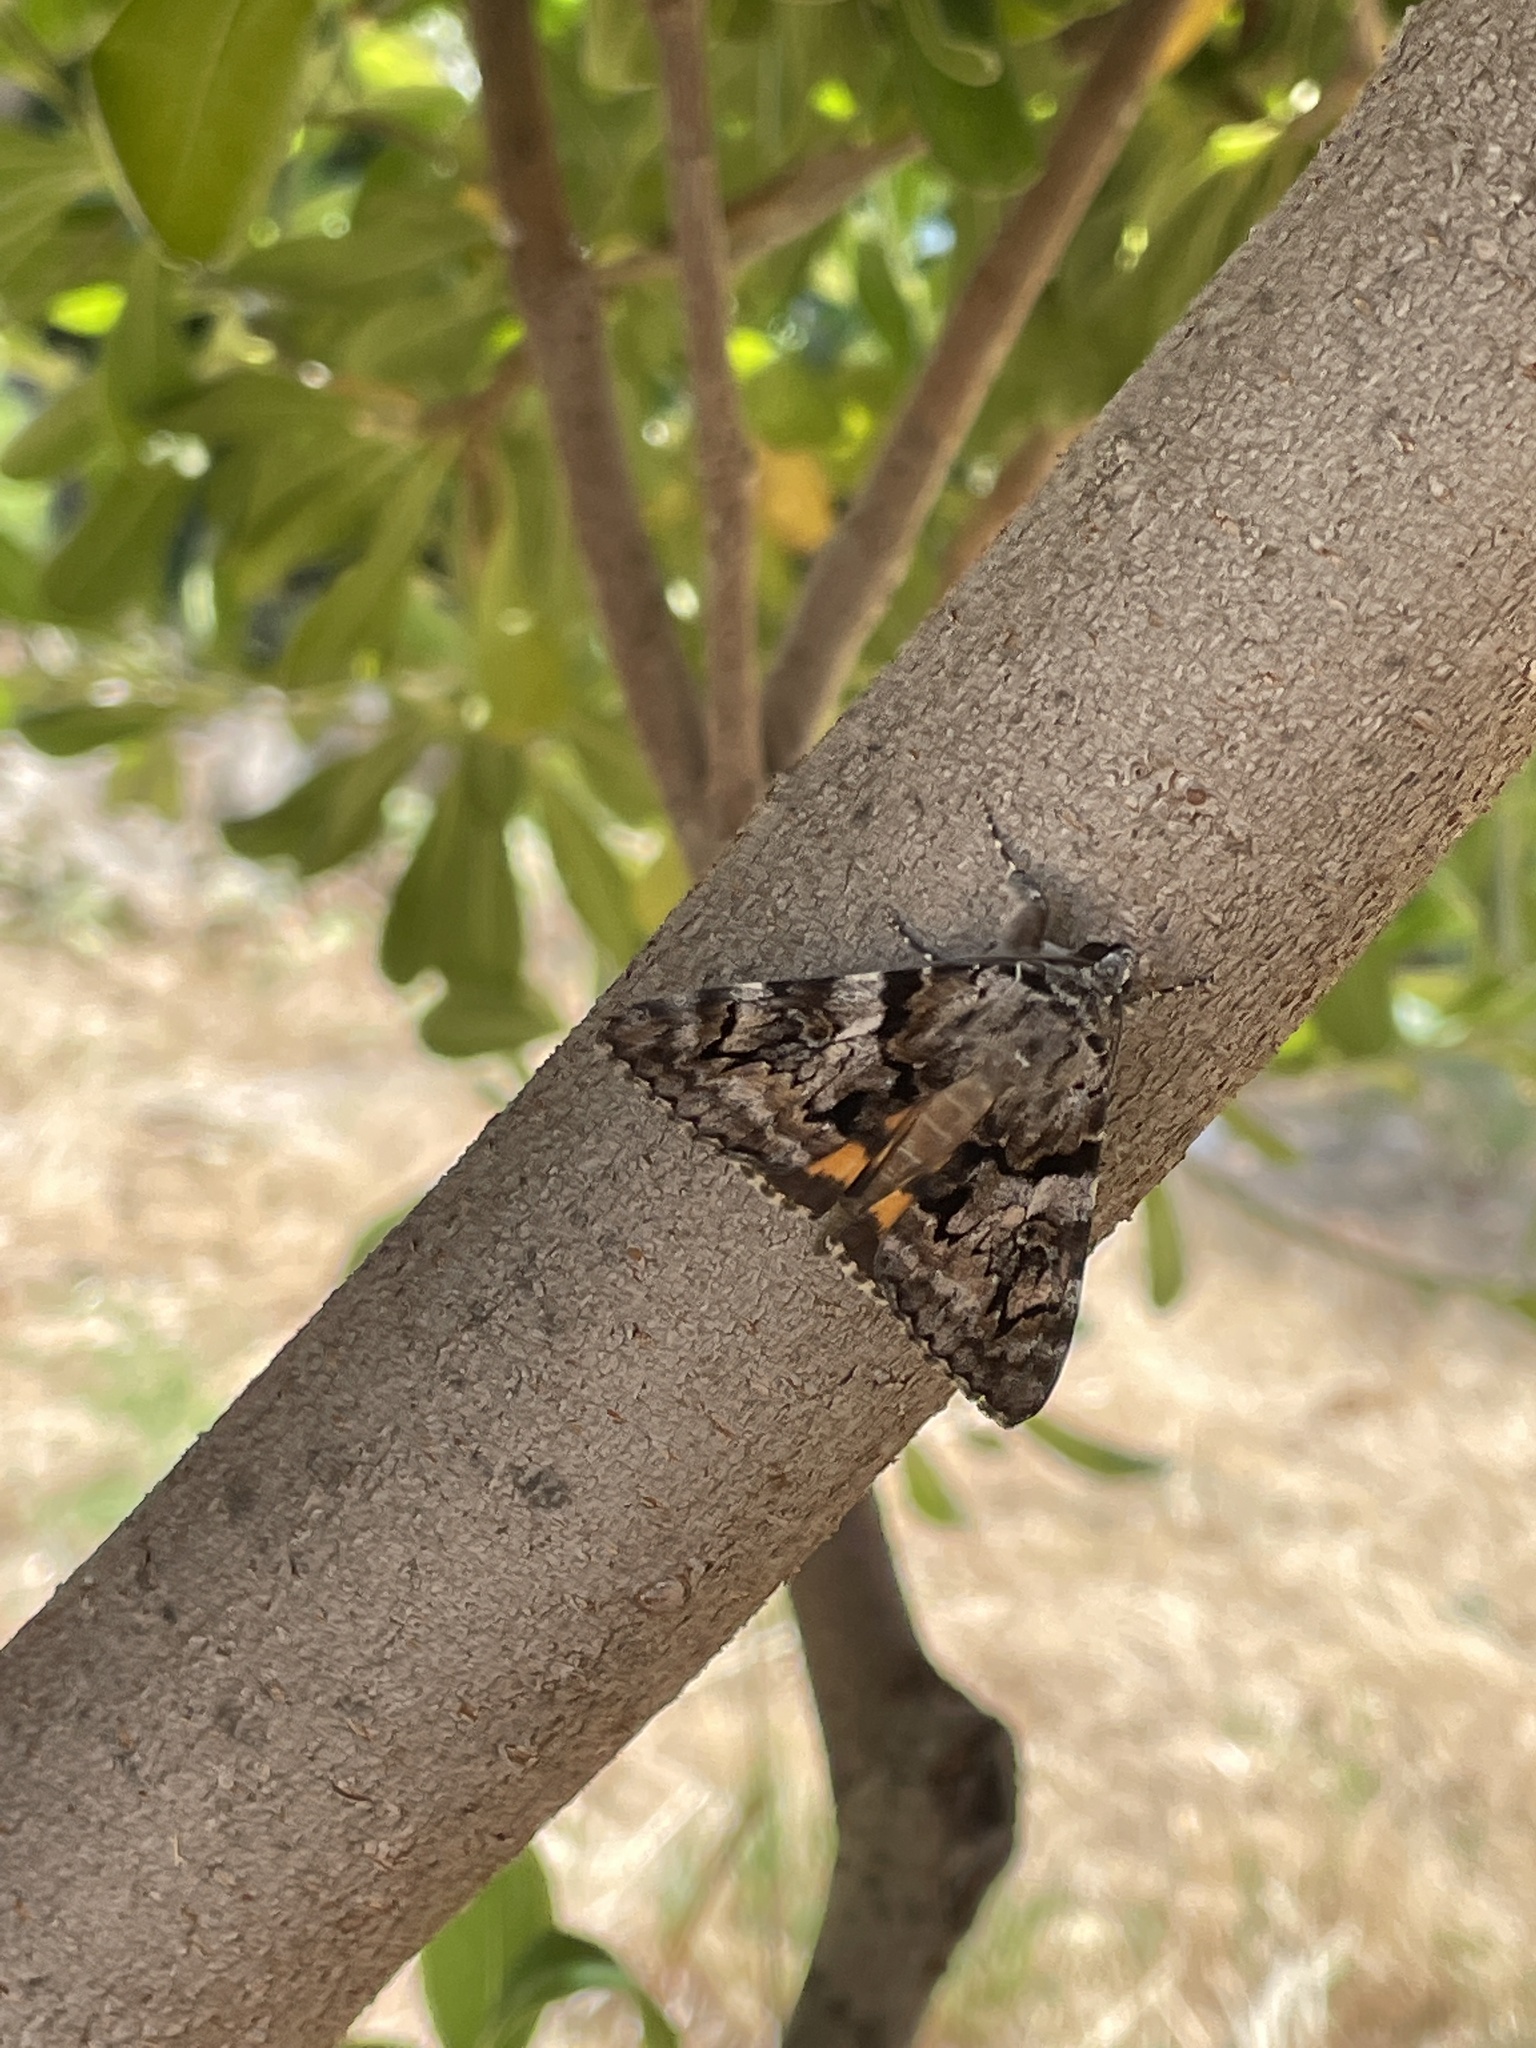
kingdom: Animalia
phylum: Arthropoda
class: Insecta
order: Lepidoptera
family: Erebidae
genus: Catocala
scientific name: Catocala nymphagoga
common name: Oak yellow underwing
